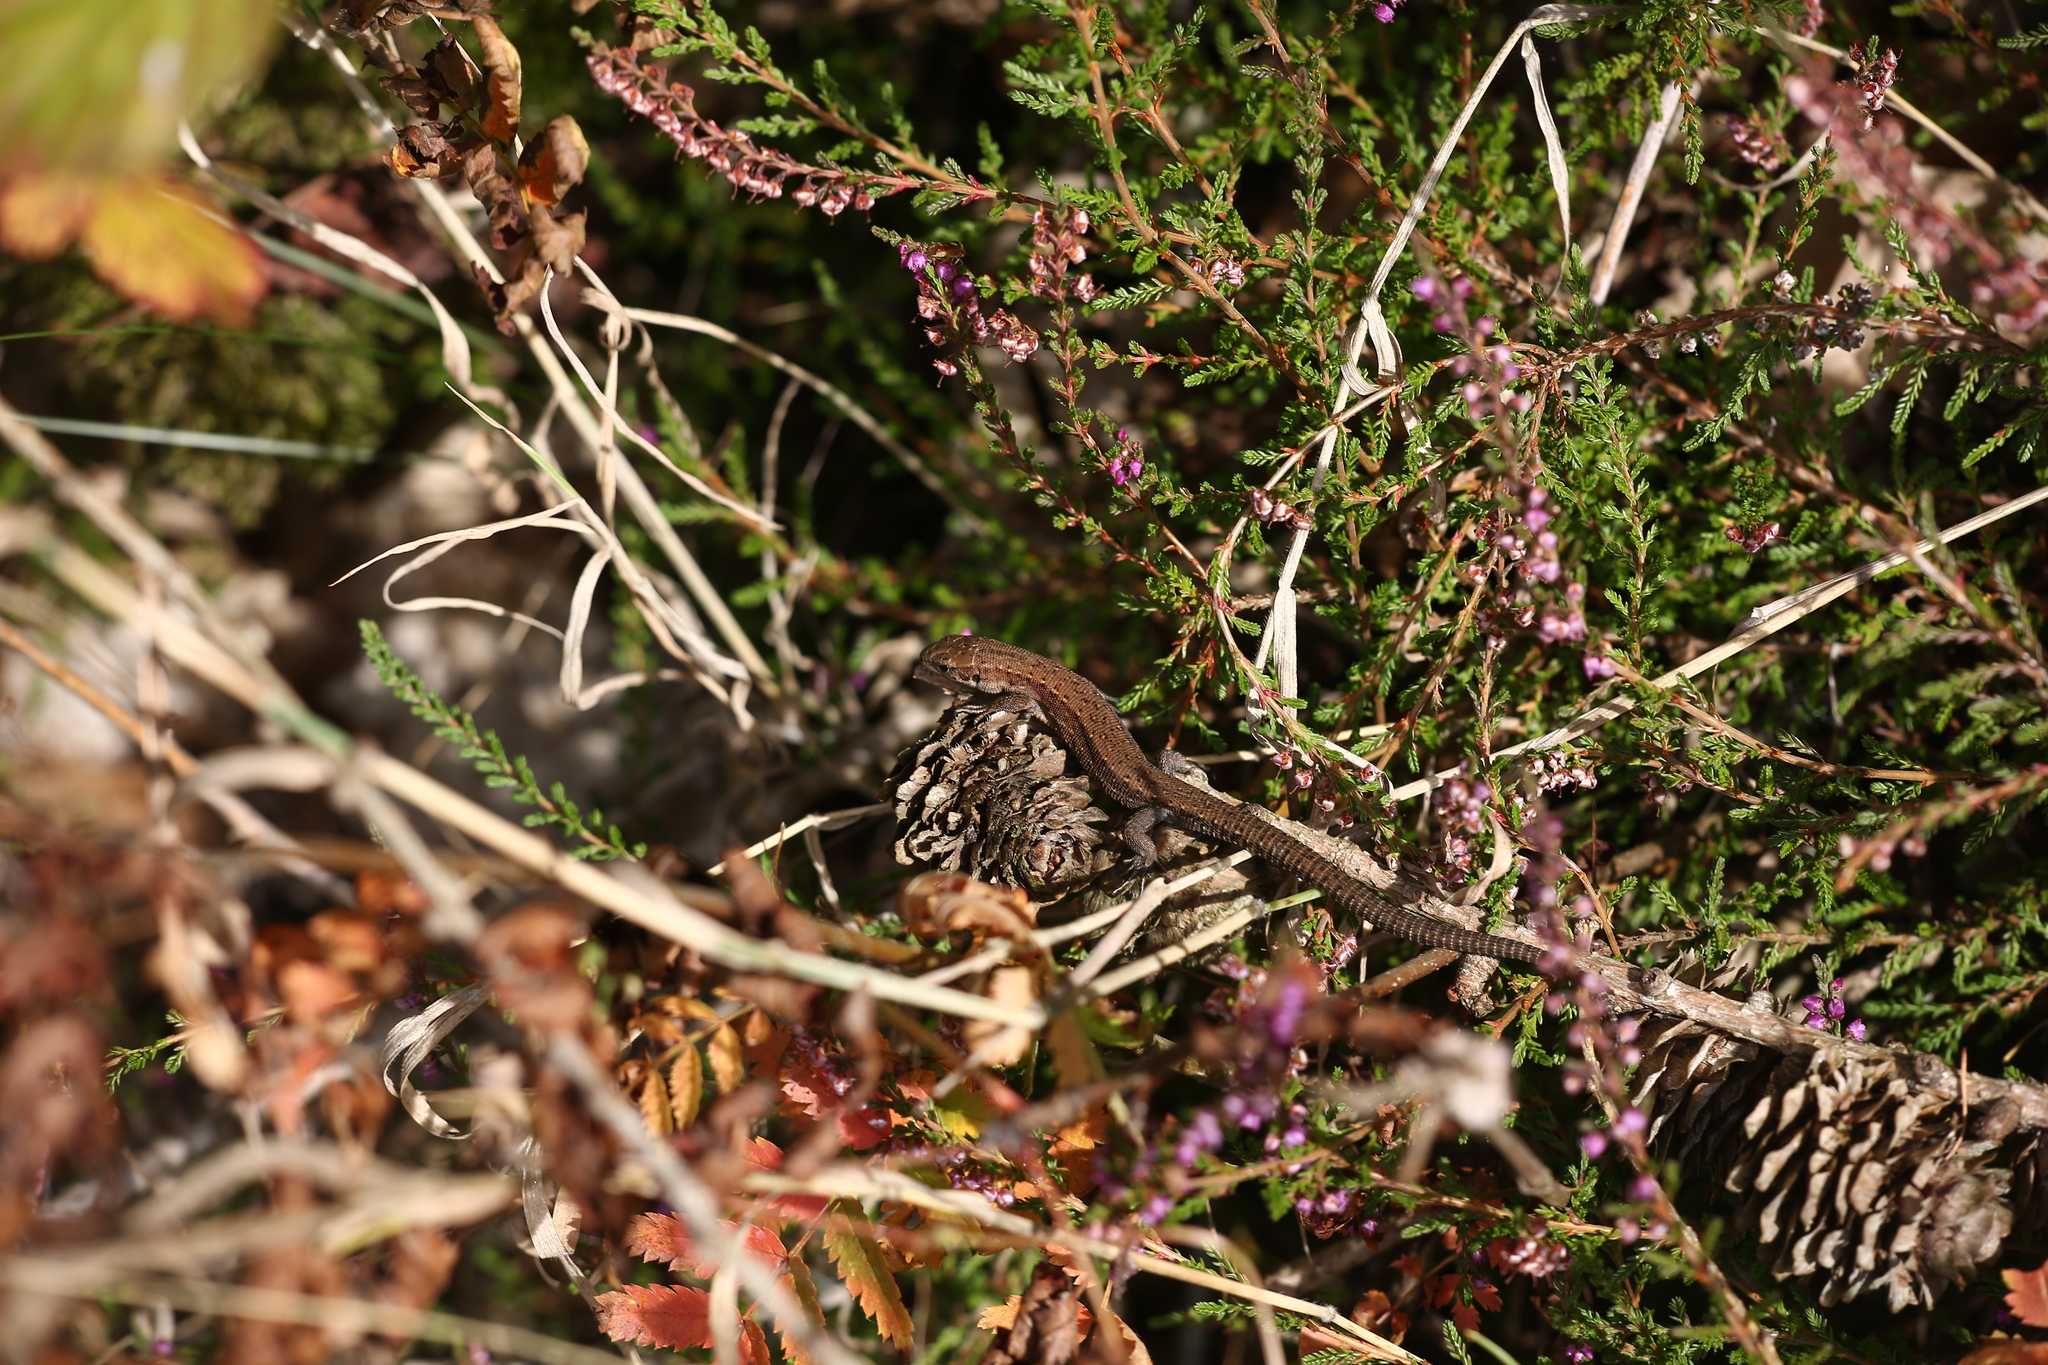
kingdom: Animalia
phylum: Chordata
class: Squamata
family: Lacertidae
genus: Zootoca
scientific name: Zootoca vivipara
